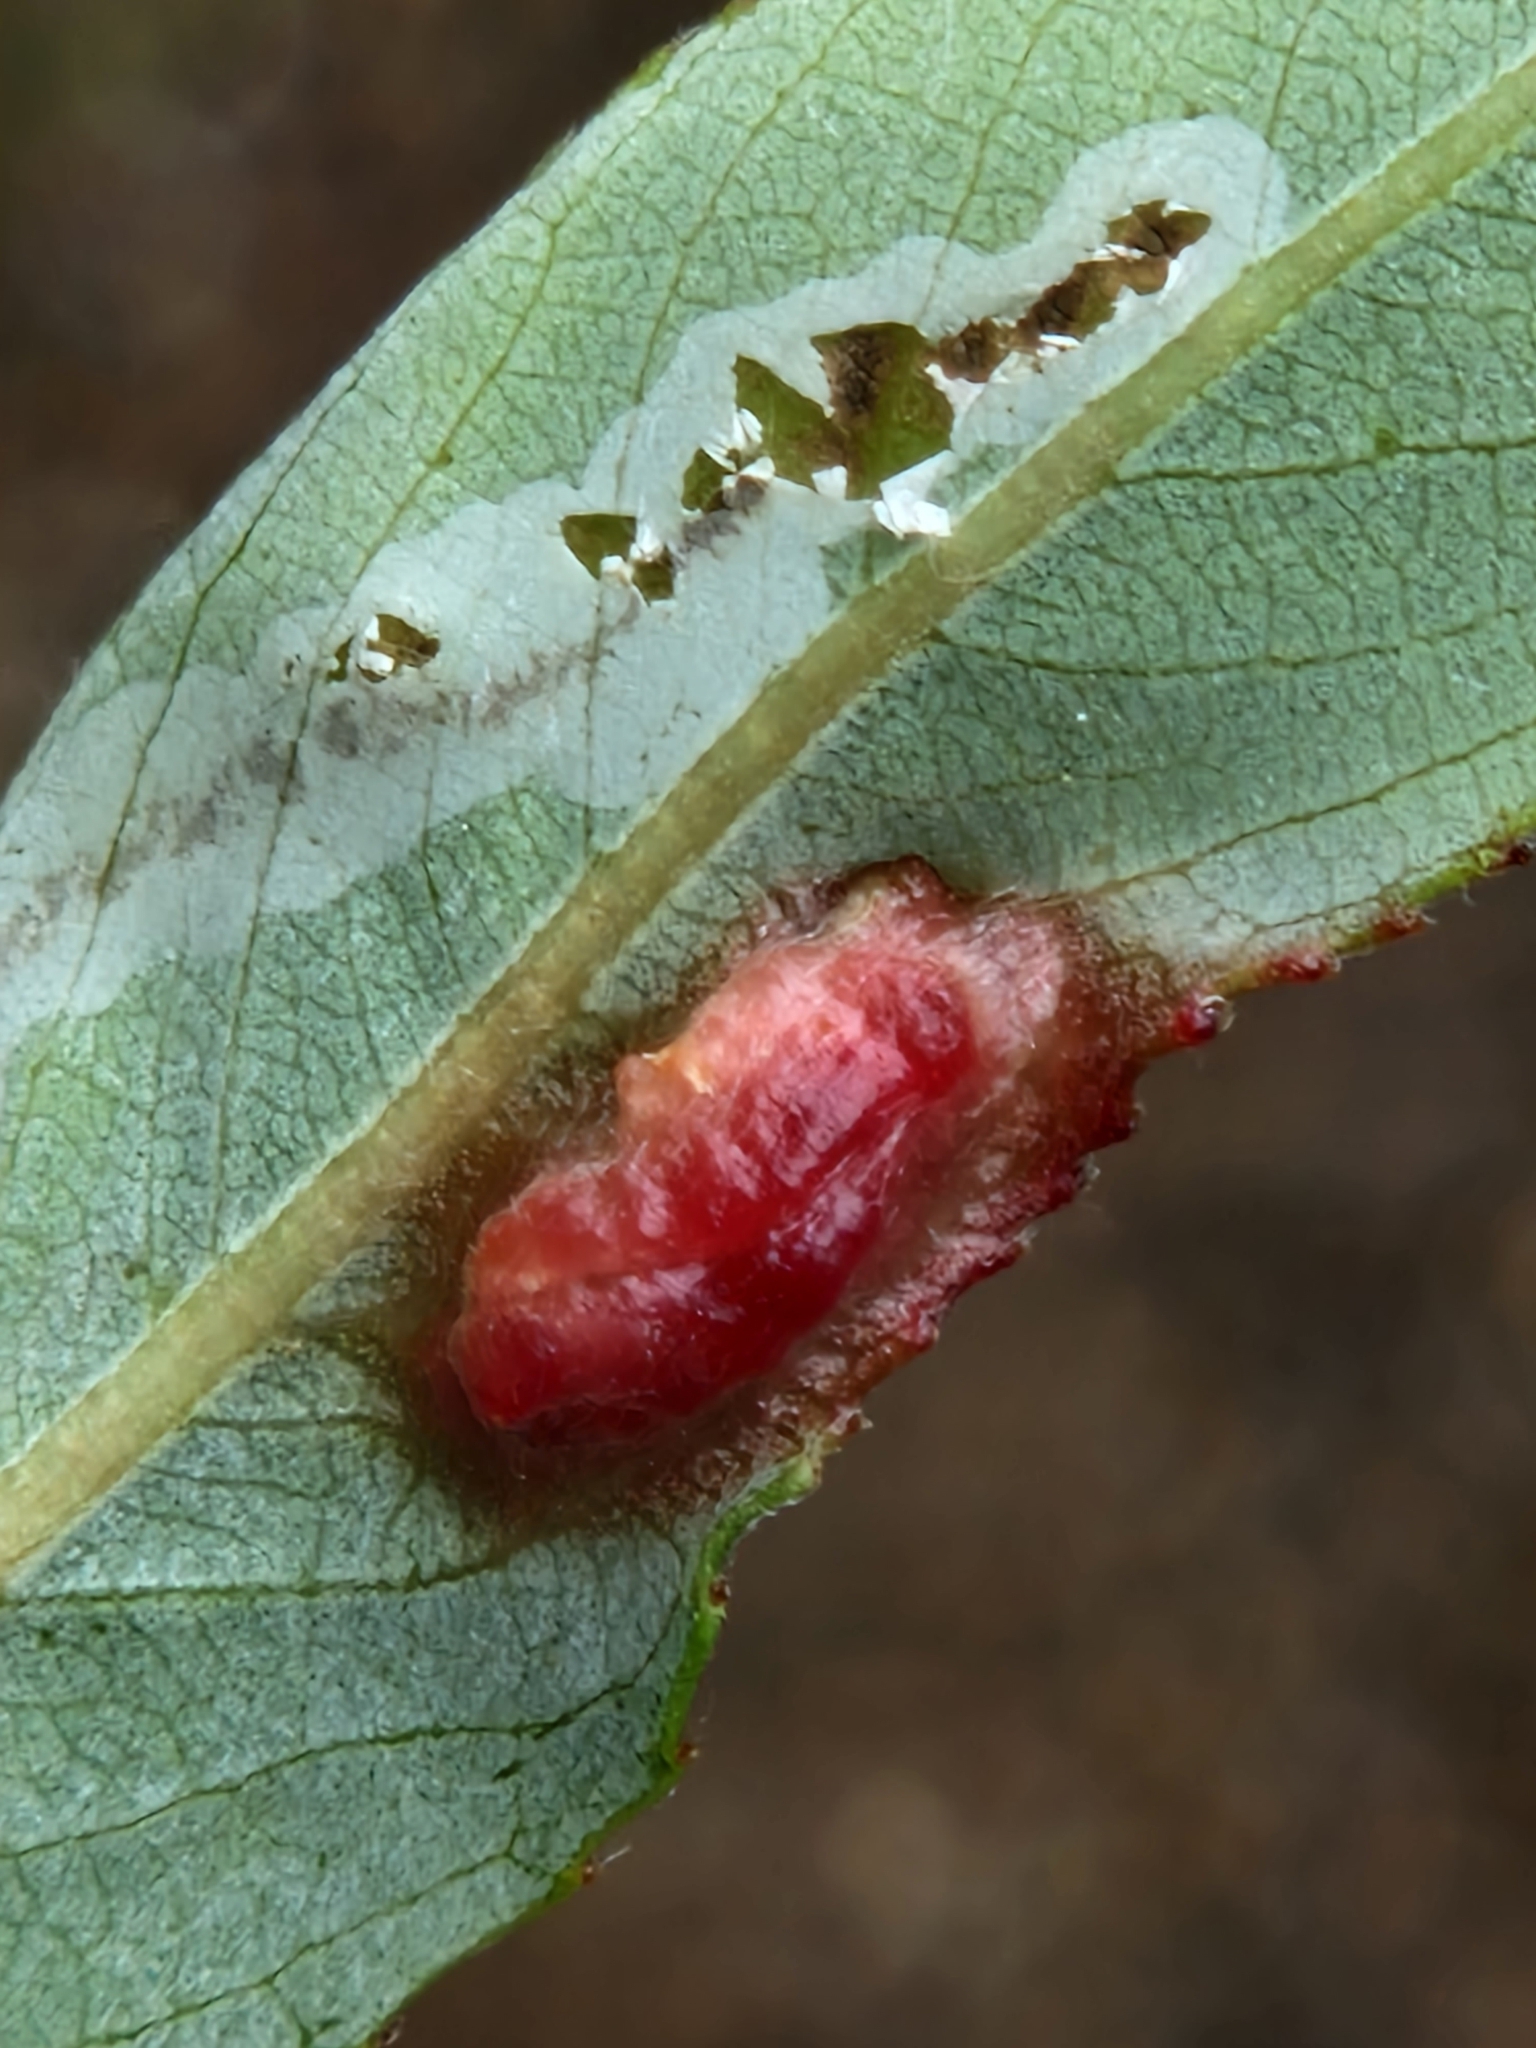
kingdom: Animalia
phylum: Arthropoda
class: Insecta
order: Hymenoptera
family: Tenthredinidae
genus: Pontania
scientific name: Pontania proxima
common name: Common sawfly
